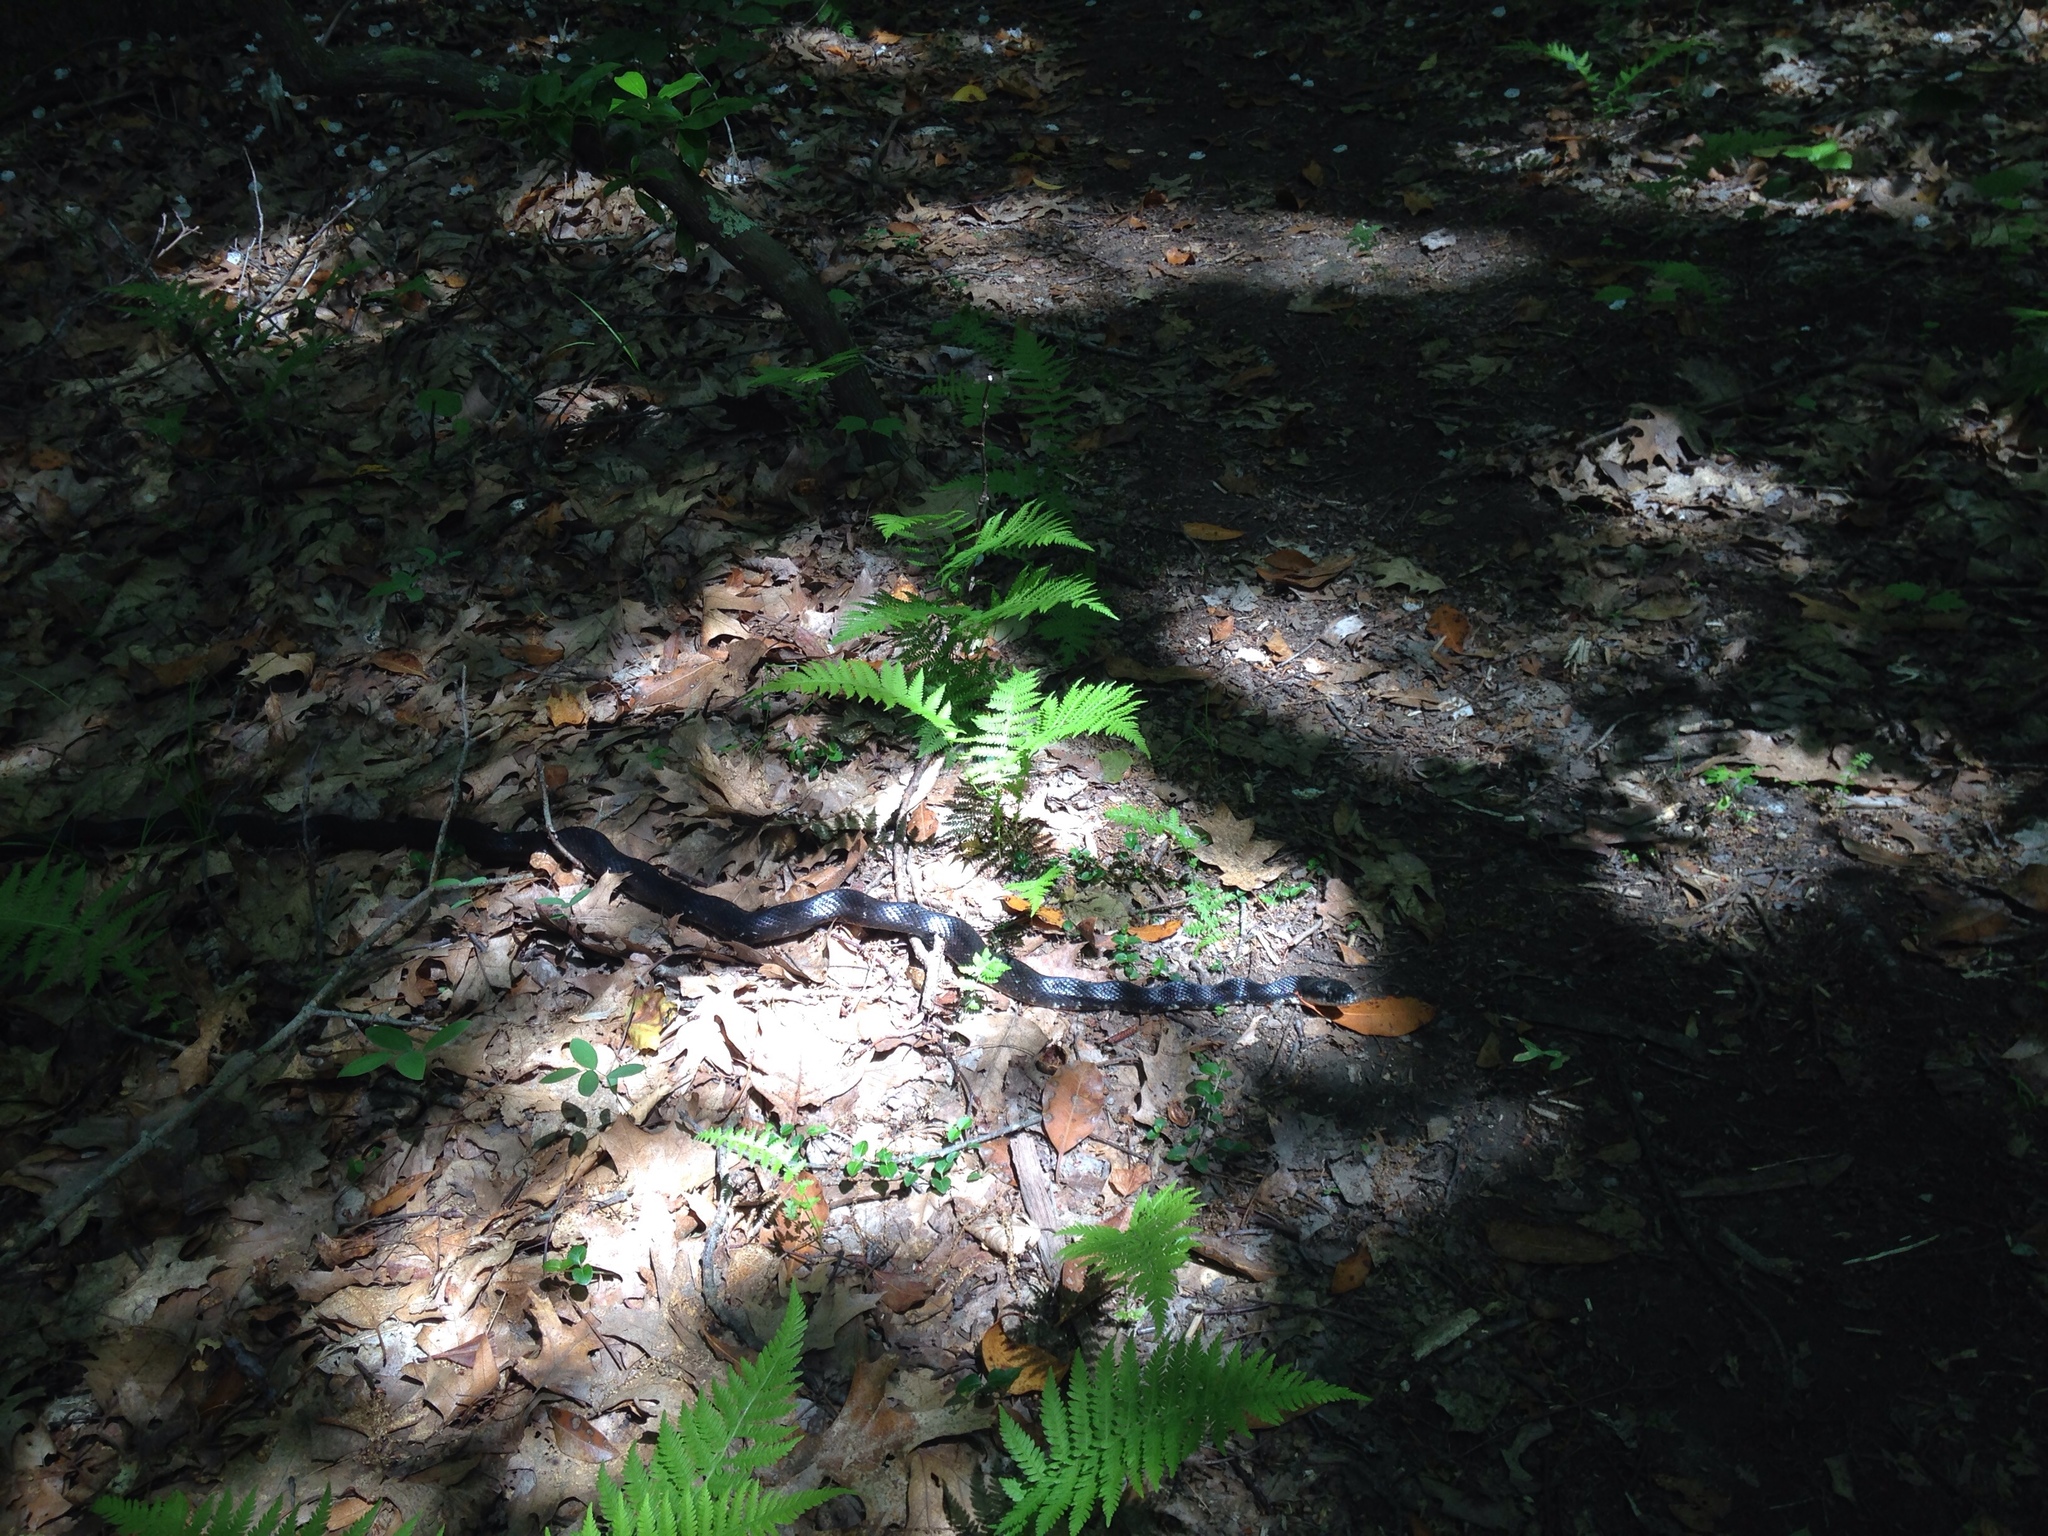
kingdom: Animalia
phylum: Chordata
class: Squamata
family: Colubridae
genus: Pantherophis
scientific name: Pantherophis alleghaniensis
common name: Eastern rat snake
